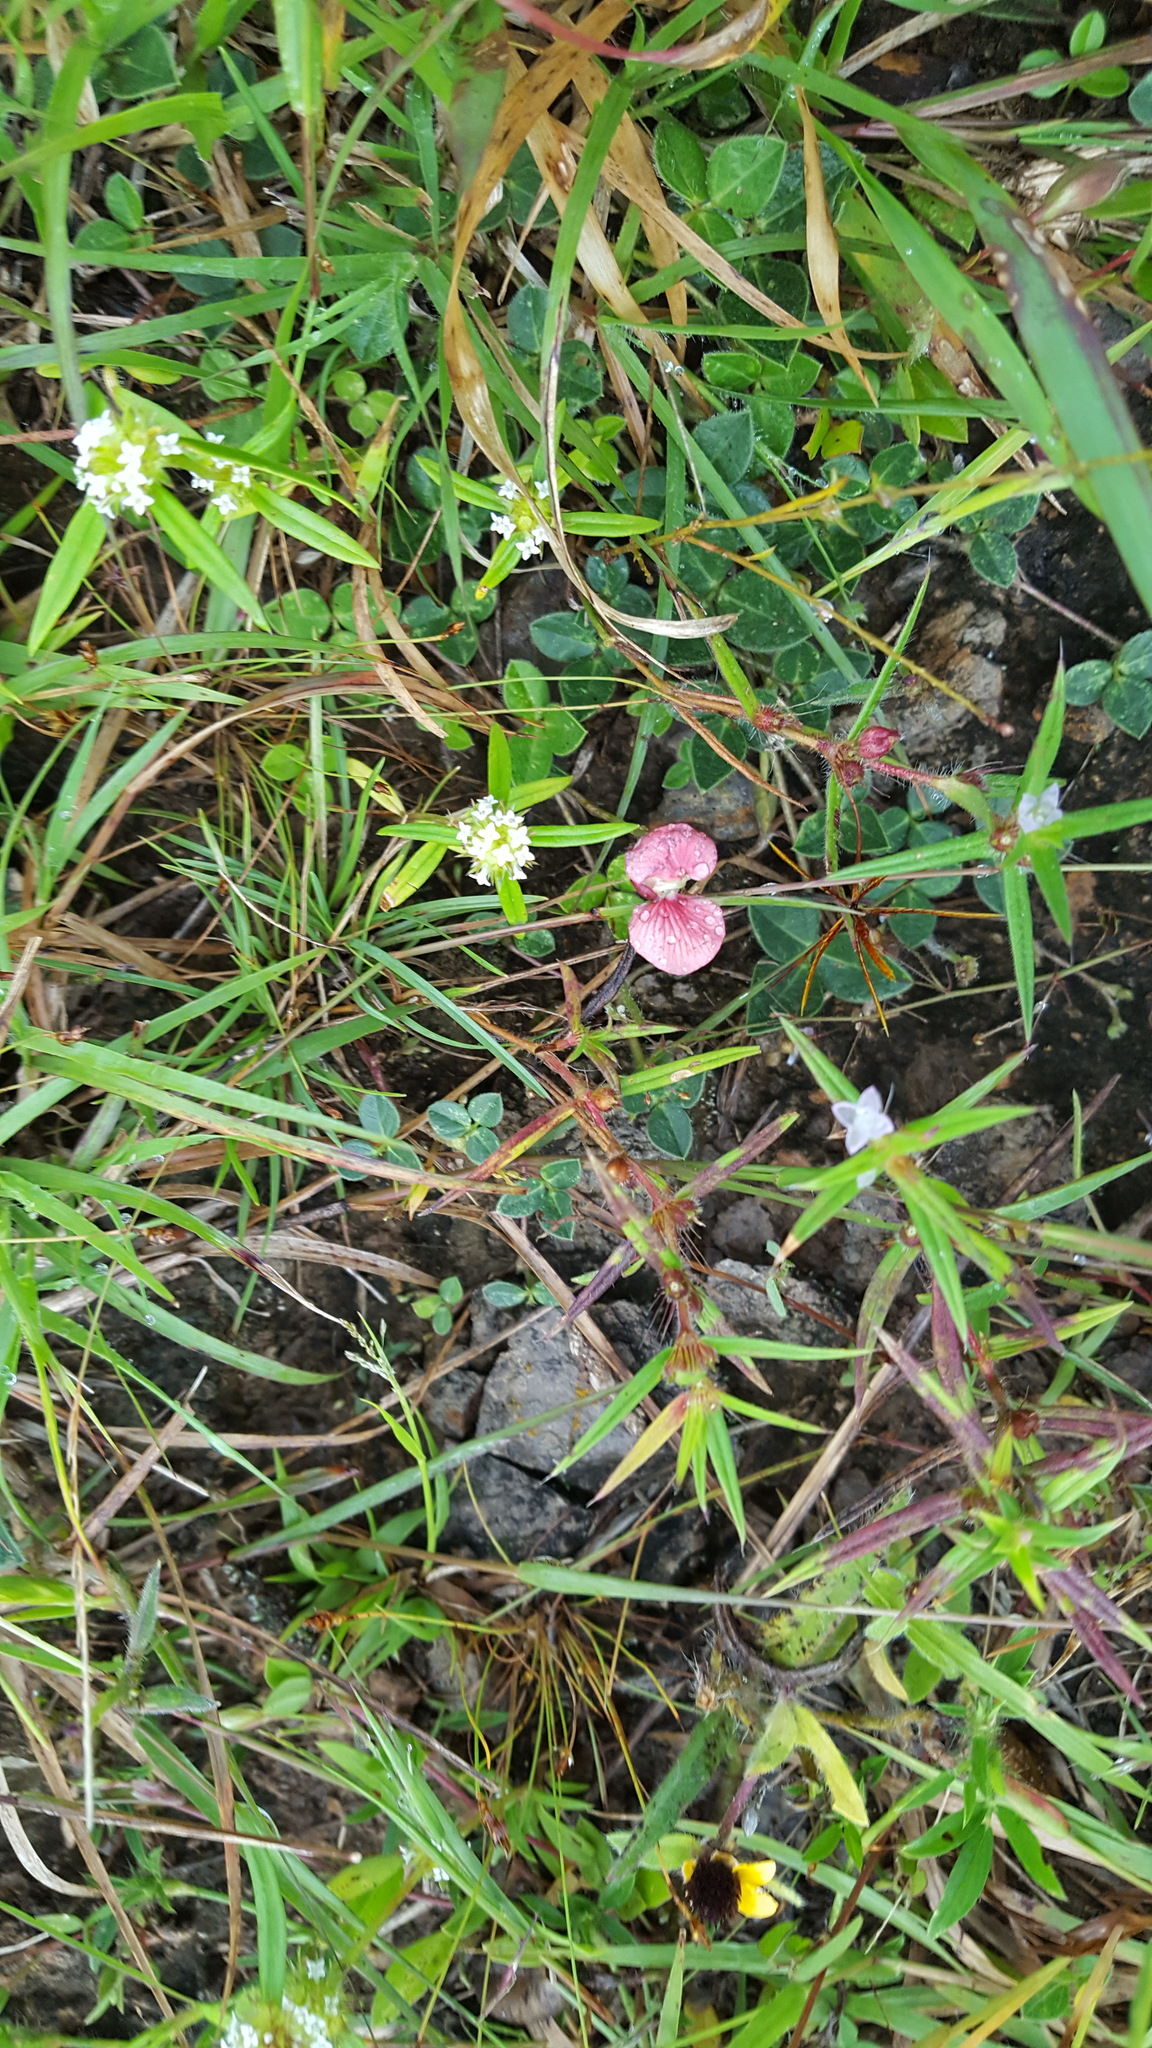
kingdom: Plantae
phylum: Tracheophyta
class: Magnoliopsida
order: Fabales
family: Fabaceae
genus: Macroptilium
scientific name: Macroptilium gibbosifolium
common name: Variableleaf bushbean
